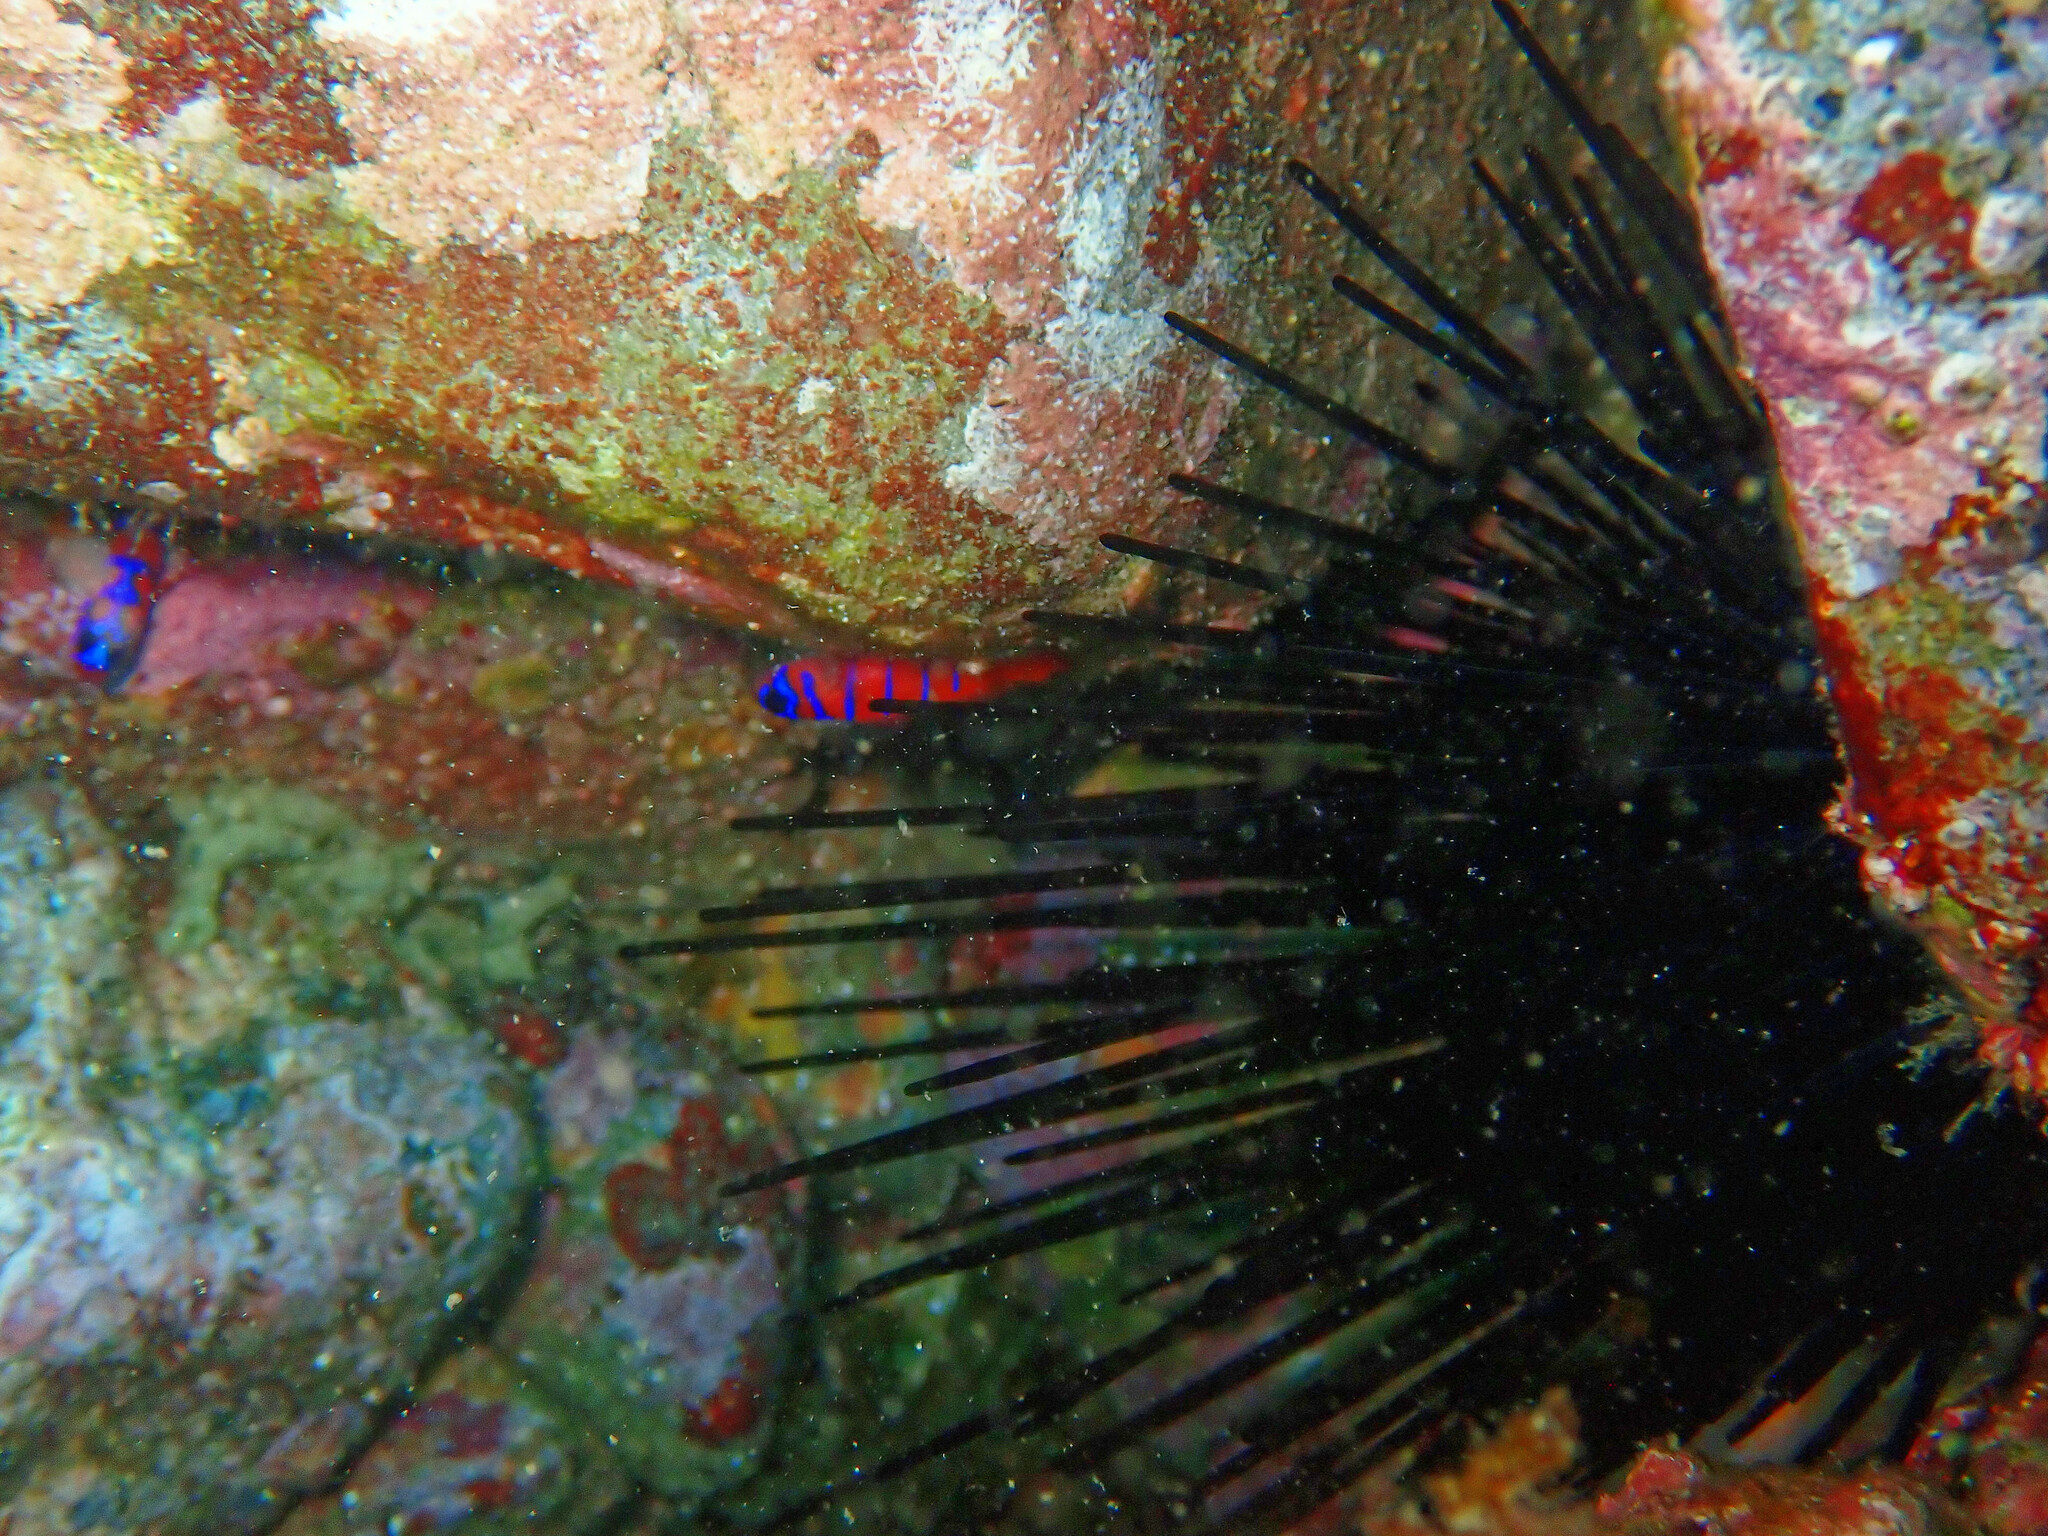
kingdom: Animalia
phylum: Echinodermata
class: Echinoidea
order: Diadematoida
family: Diadematidae
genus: Centrostephanus
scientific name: Centrostephanus coronatus
